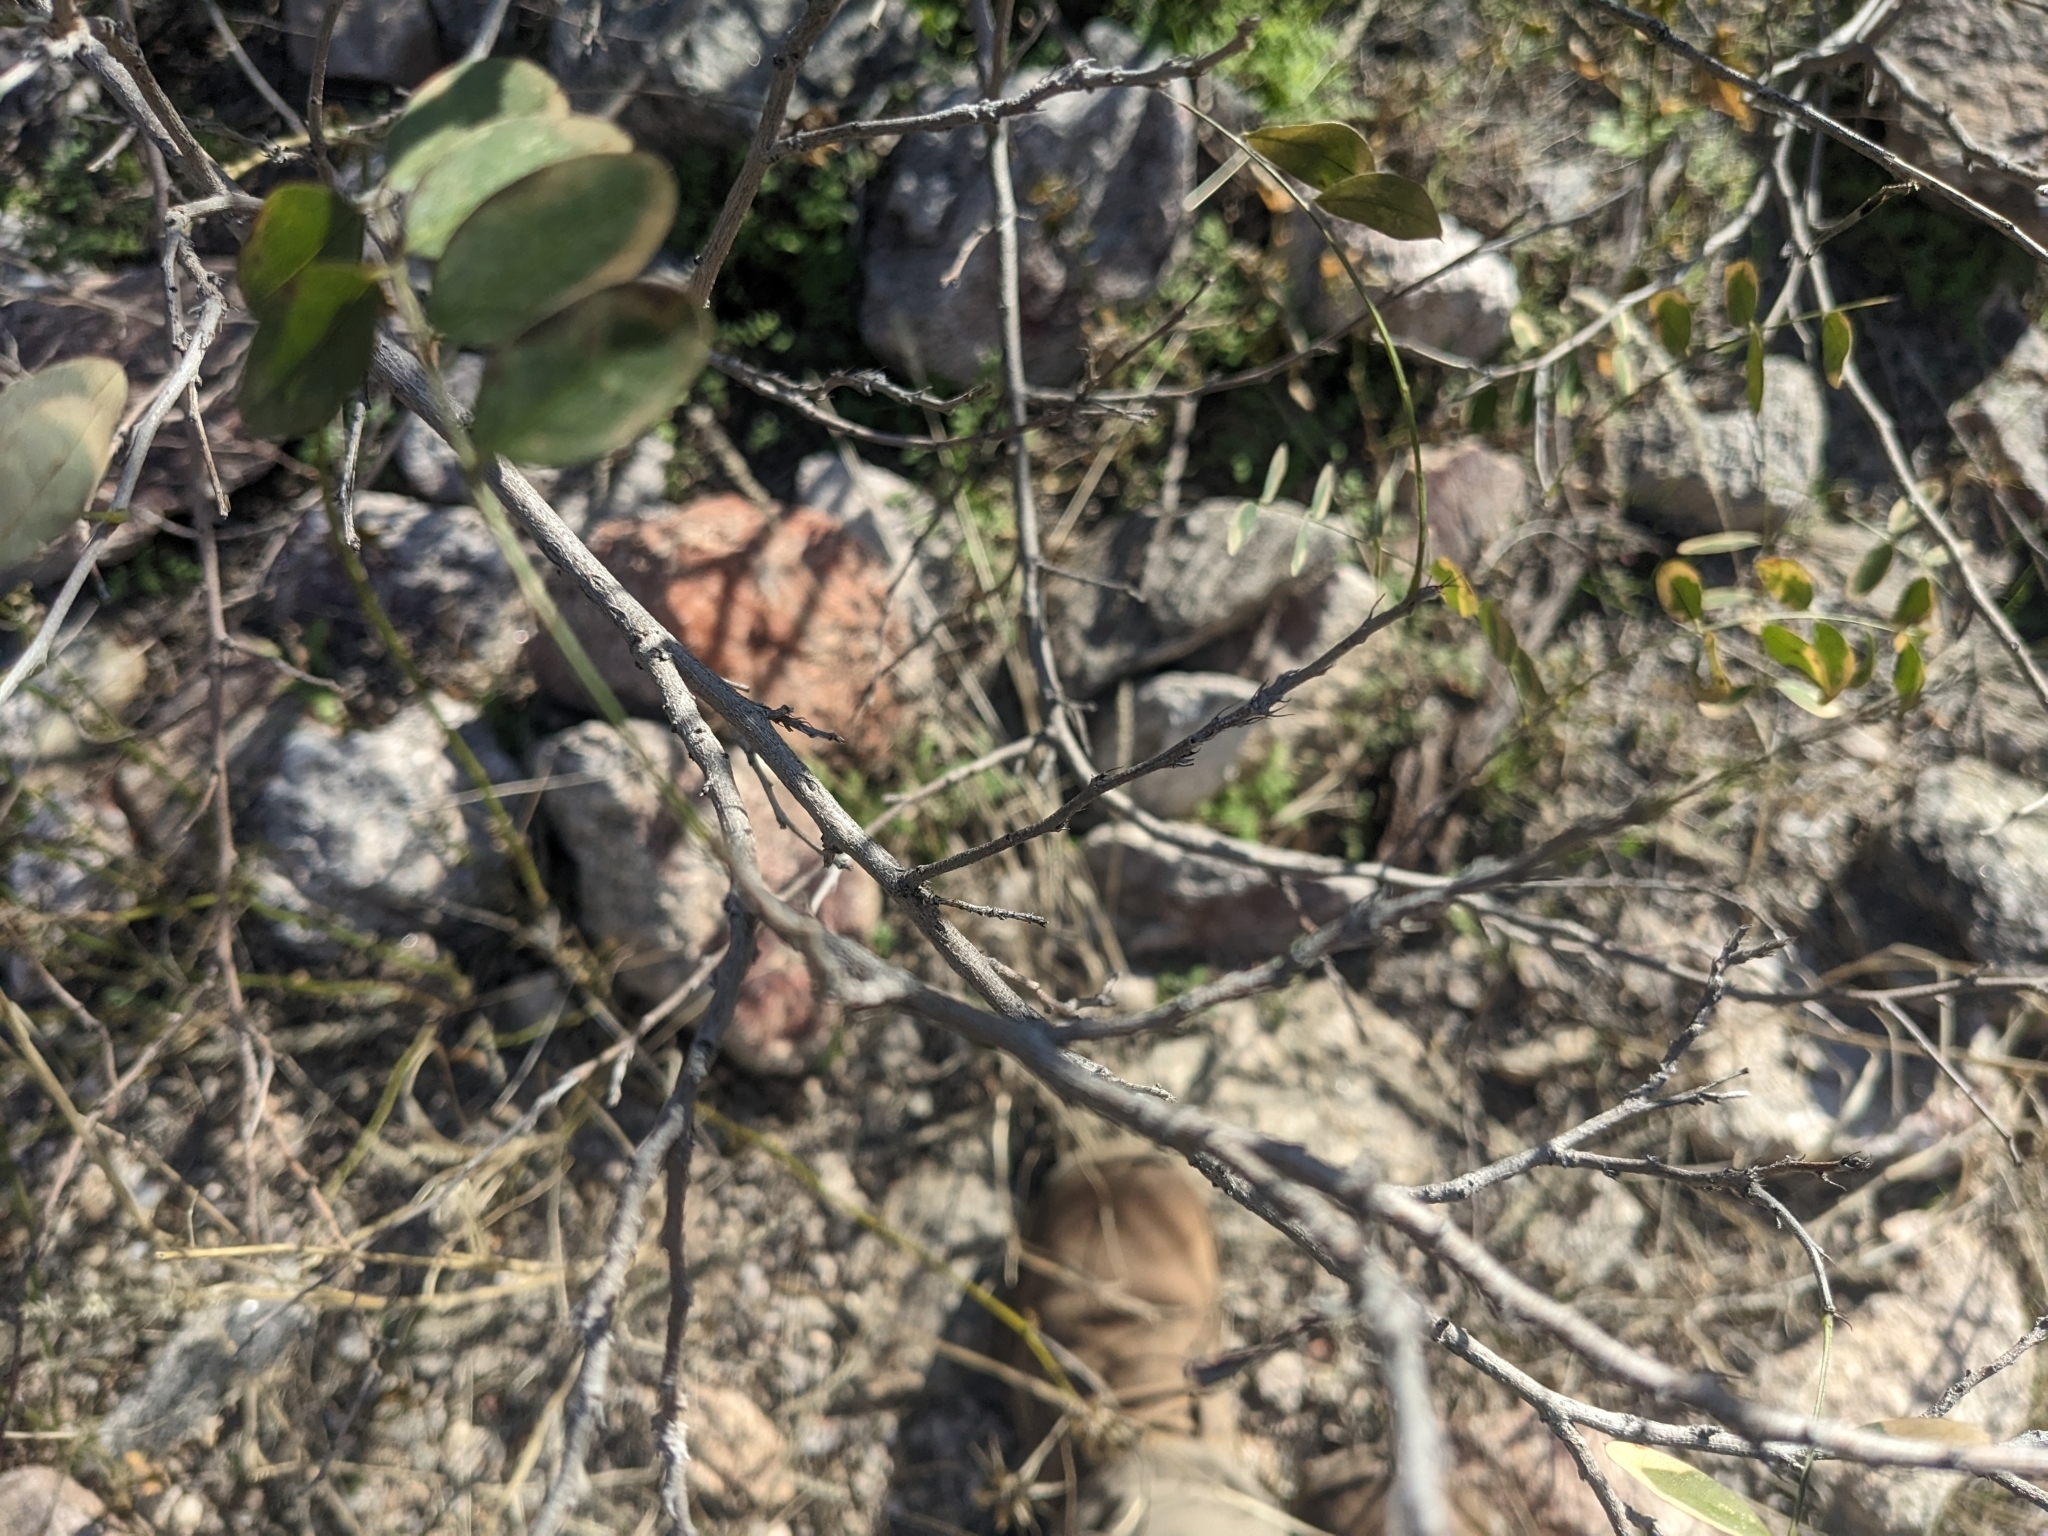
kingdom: Plantae
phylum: Tracheophyta
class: Magnoliopsida
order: Fabales
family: Fabaceae
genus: Coursetia
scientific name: Coursetia glandulosa
